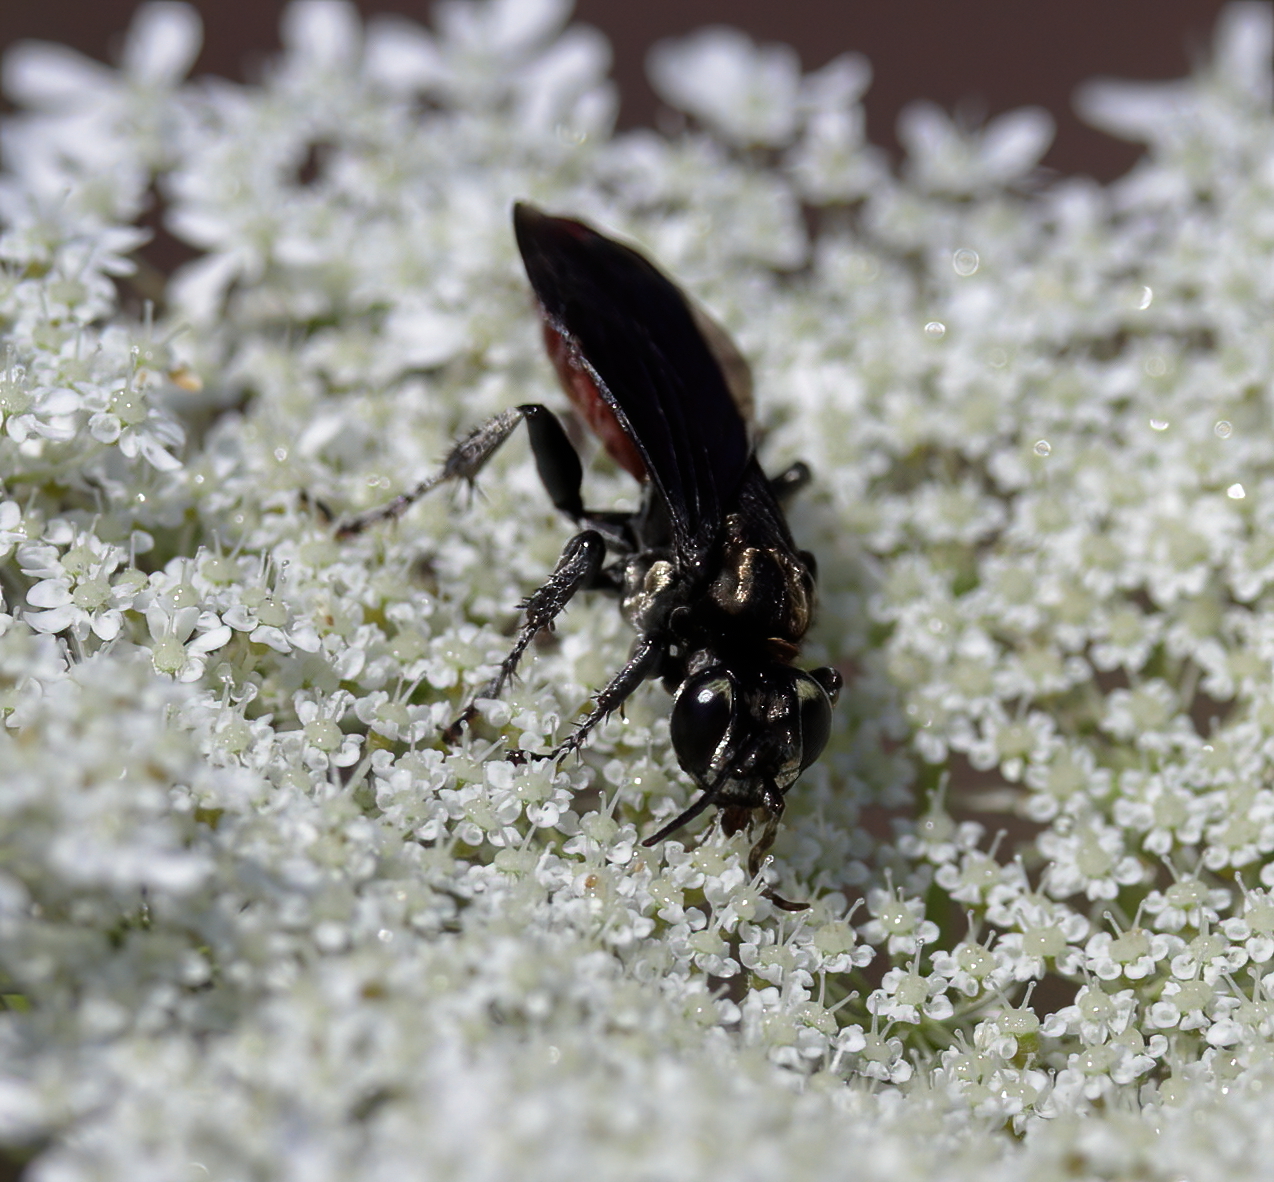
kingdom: Animalia
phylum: Arthropoda
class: Insecta
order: Hymenoptera
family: Crabronidae
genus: Larra
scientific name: Larra bicolor
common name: Wasp
